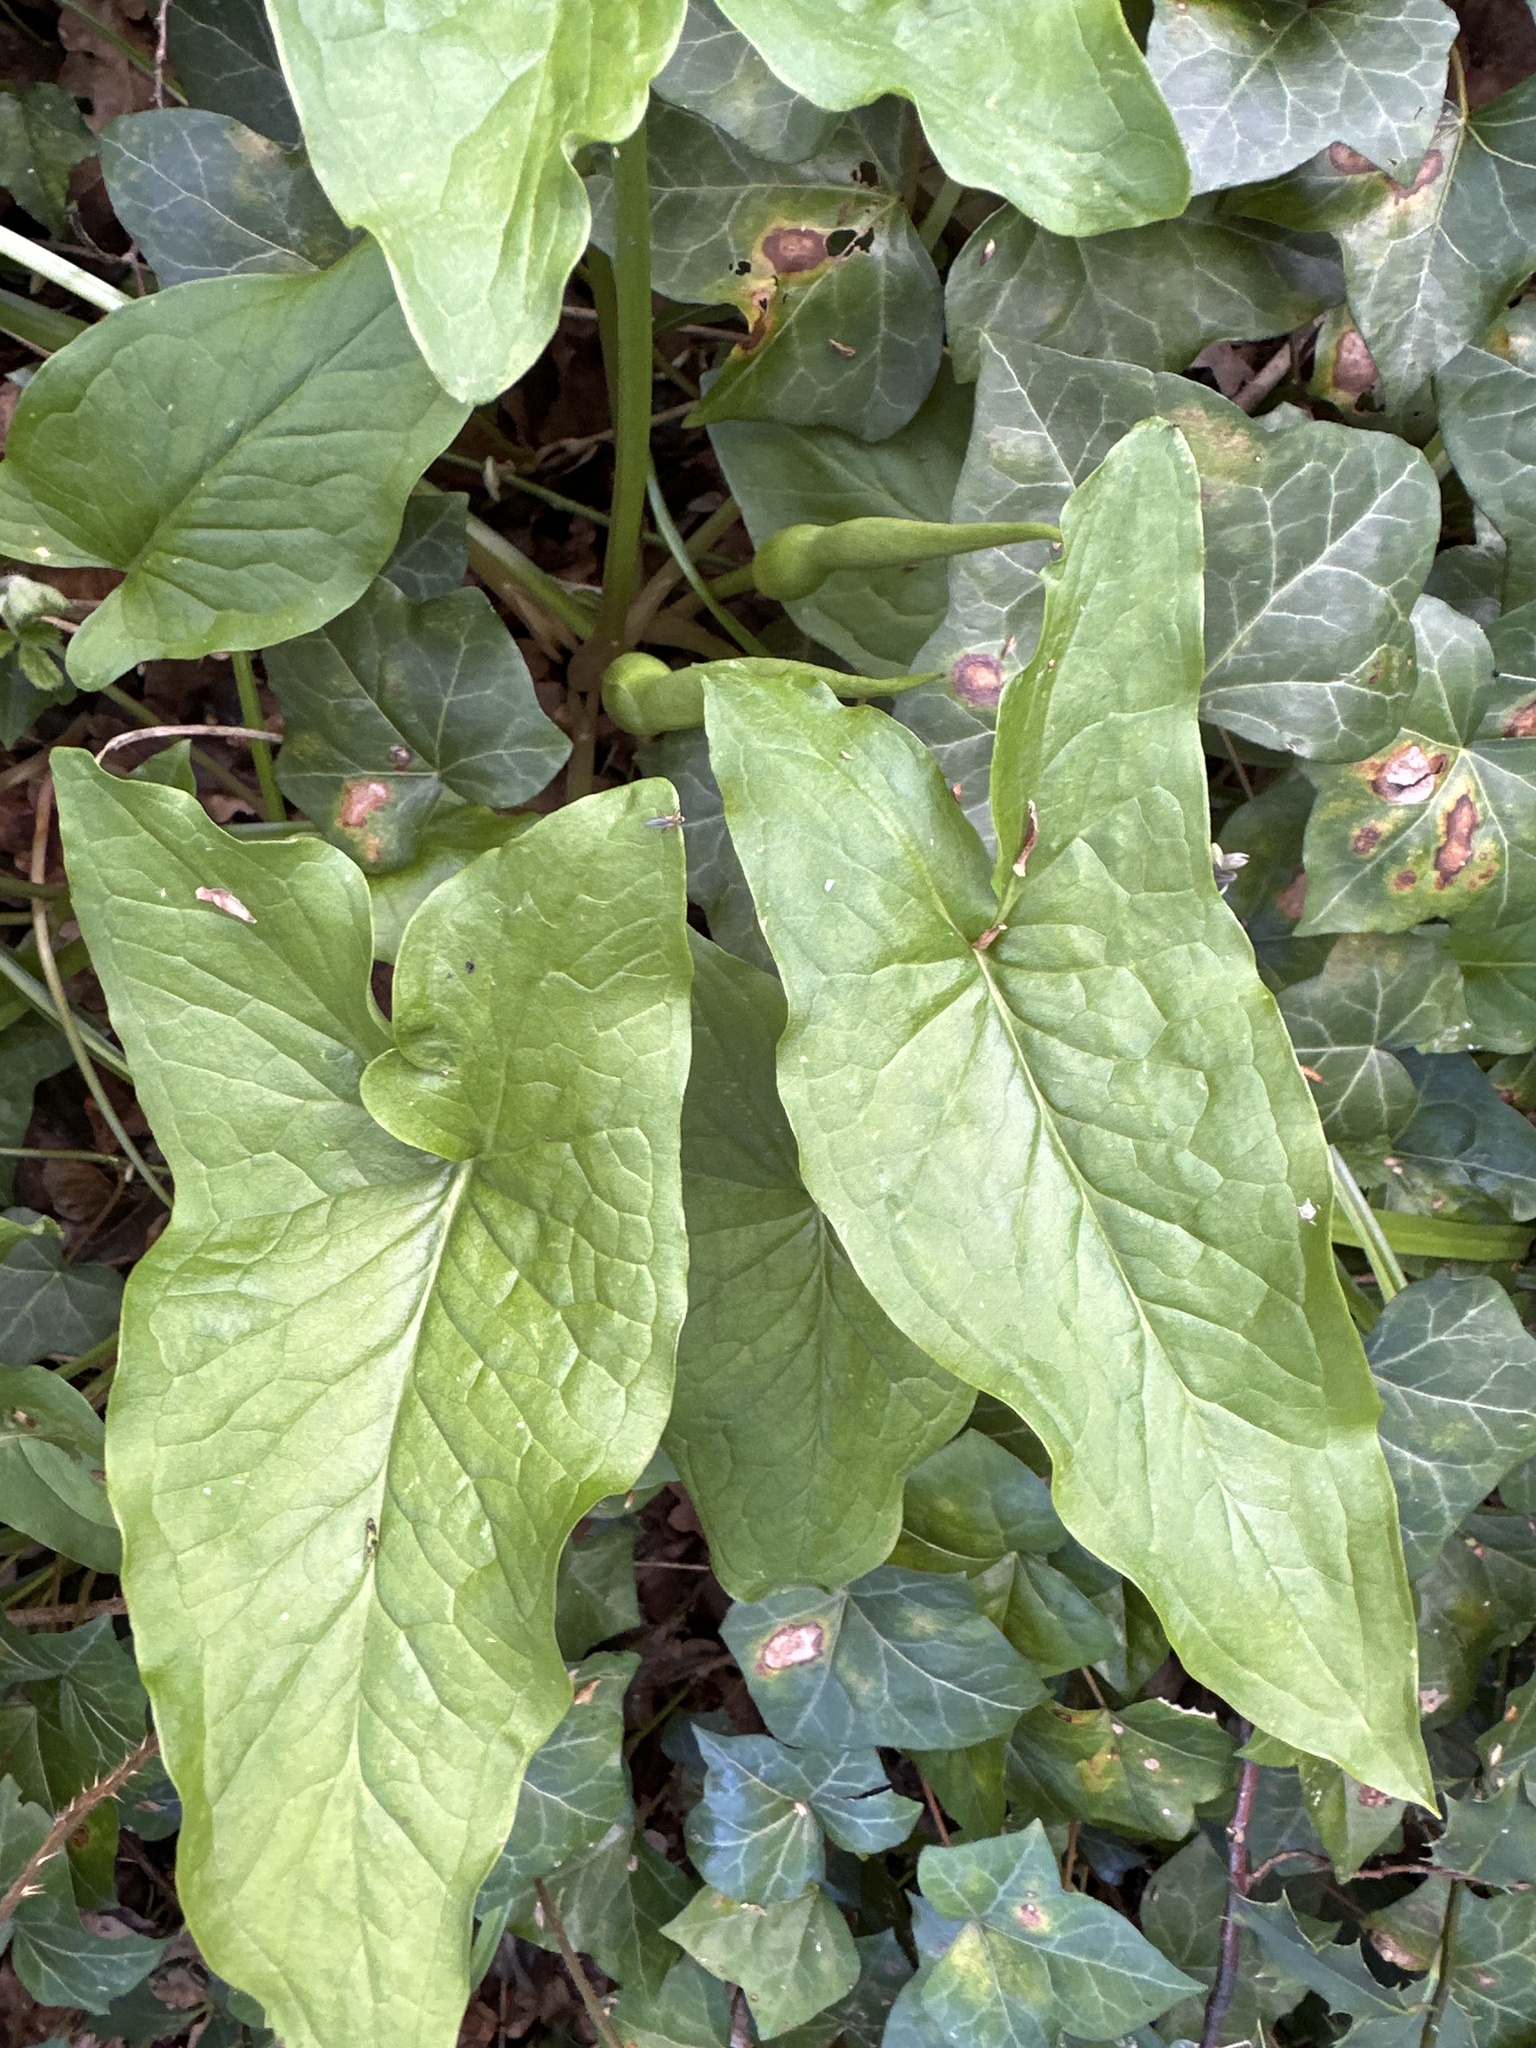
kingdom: Plantae
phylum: Tracheophyta
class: Liliopsida
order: Alismatales
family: Araceae
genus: Arum
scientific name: Arum maculatum
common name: Lords-and-ladies
